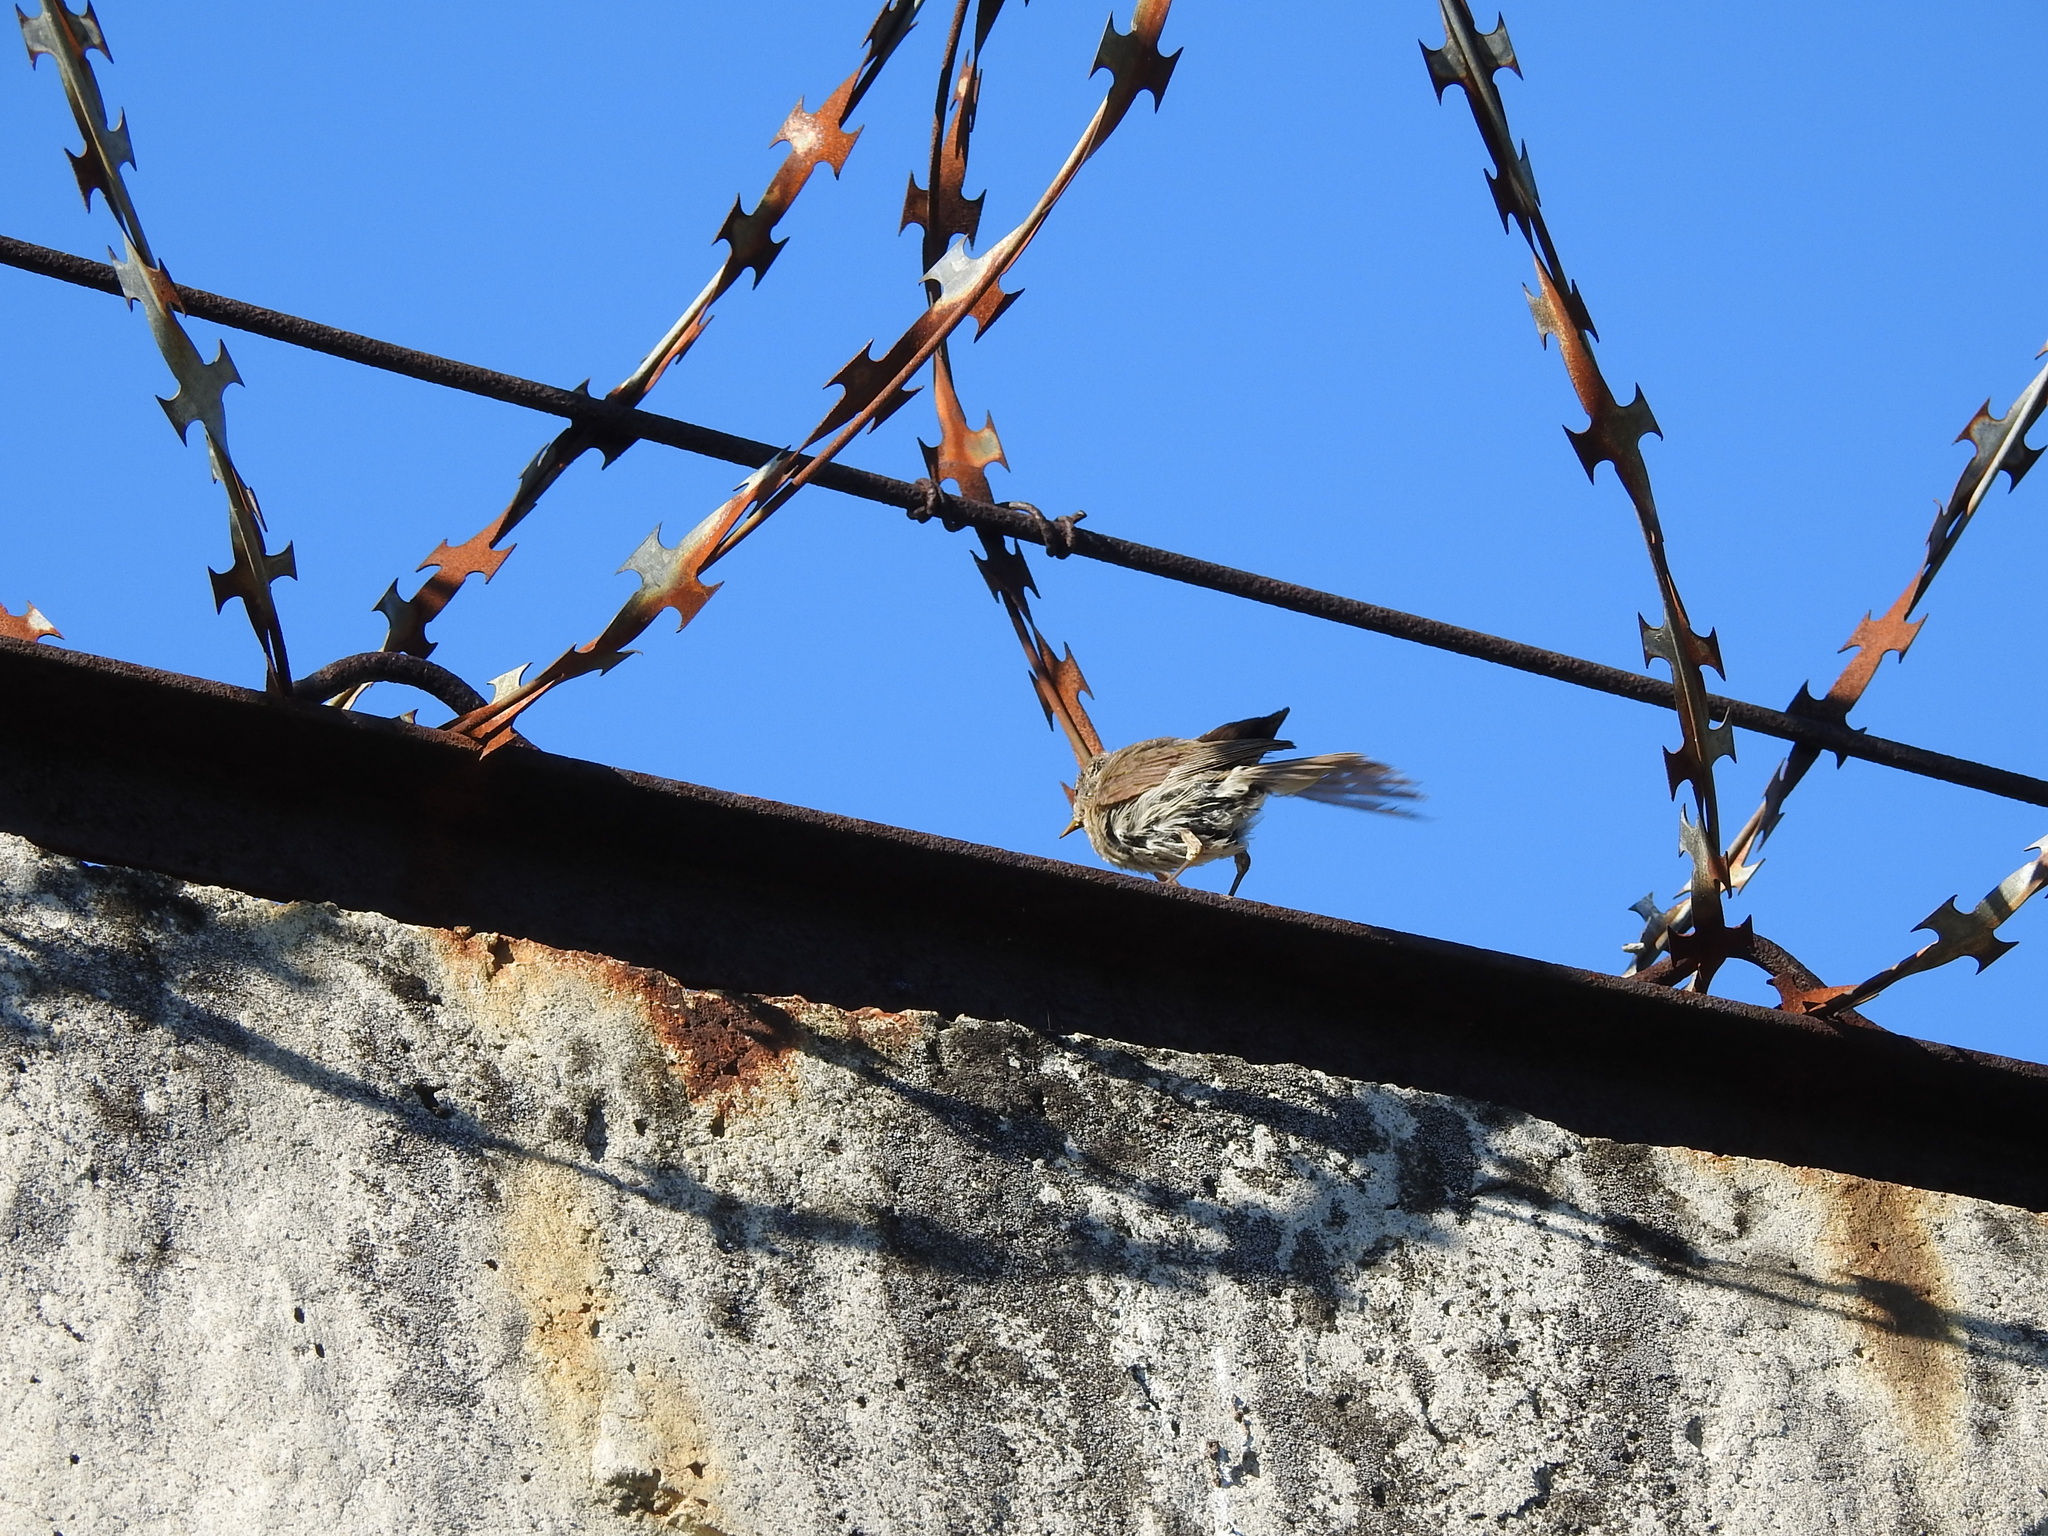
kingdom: Animalia
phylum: Chordata
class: Aves
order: Passeriformes
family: Phylloscopidae
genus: Phylloscopus
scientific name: Phylloscopus collybita
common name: Common chiffchaff
